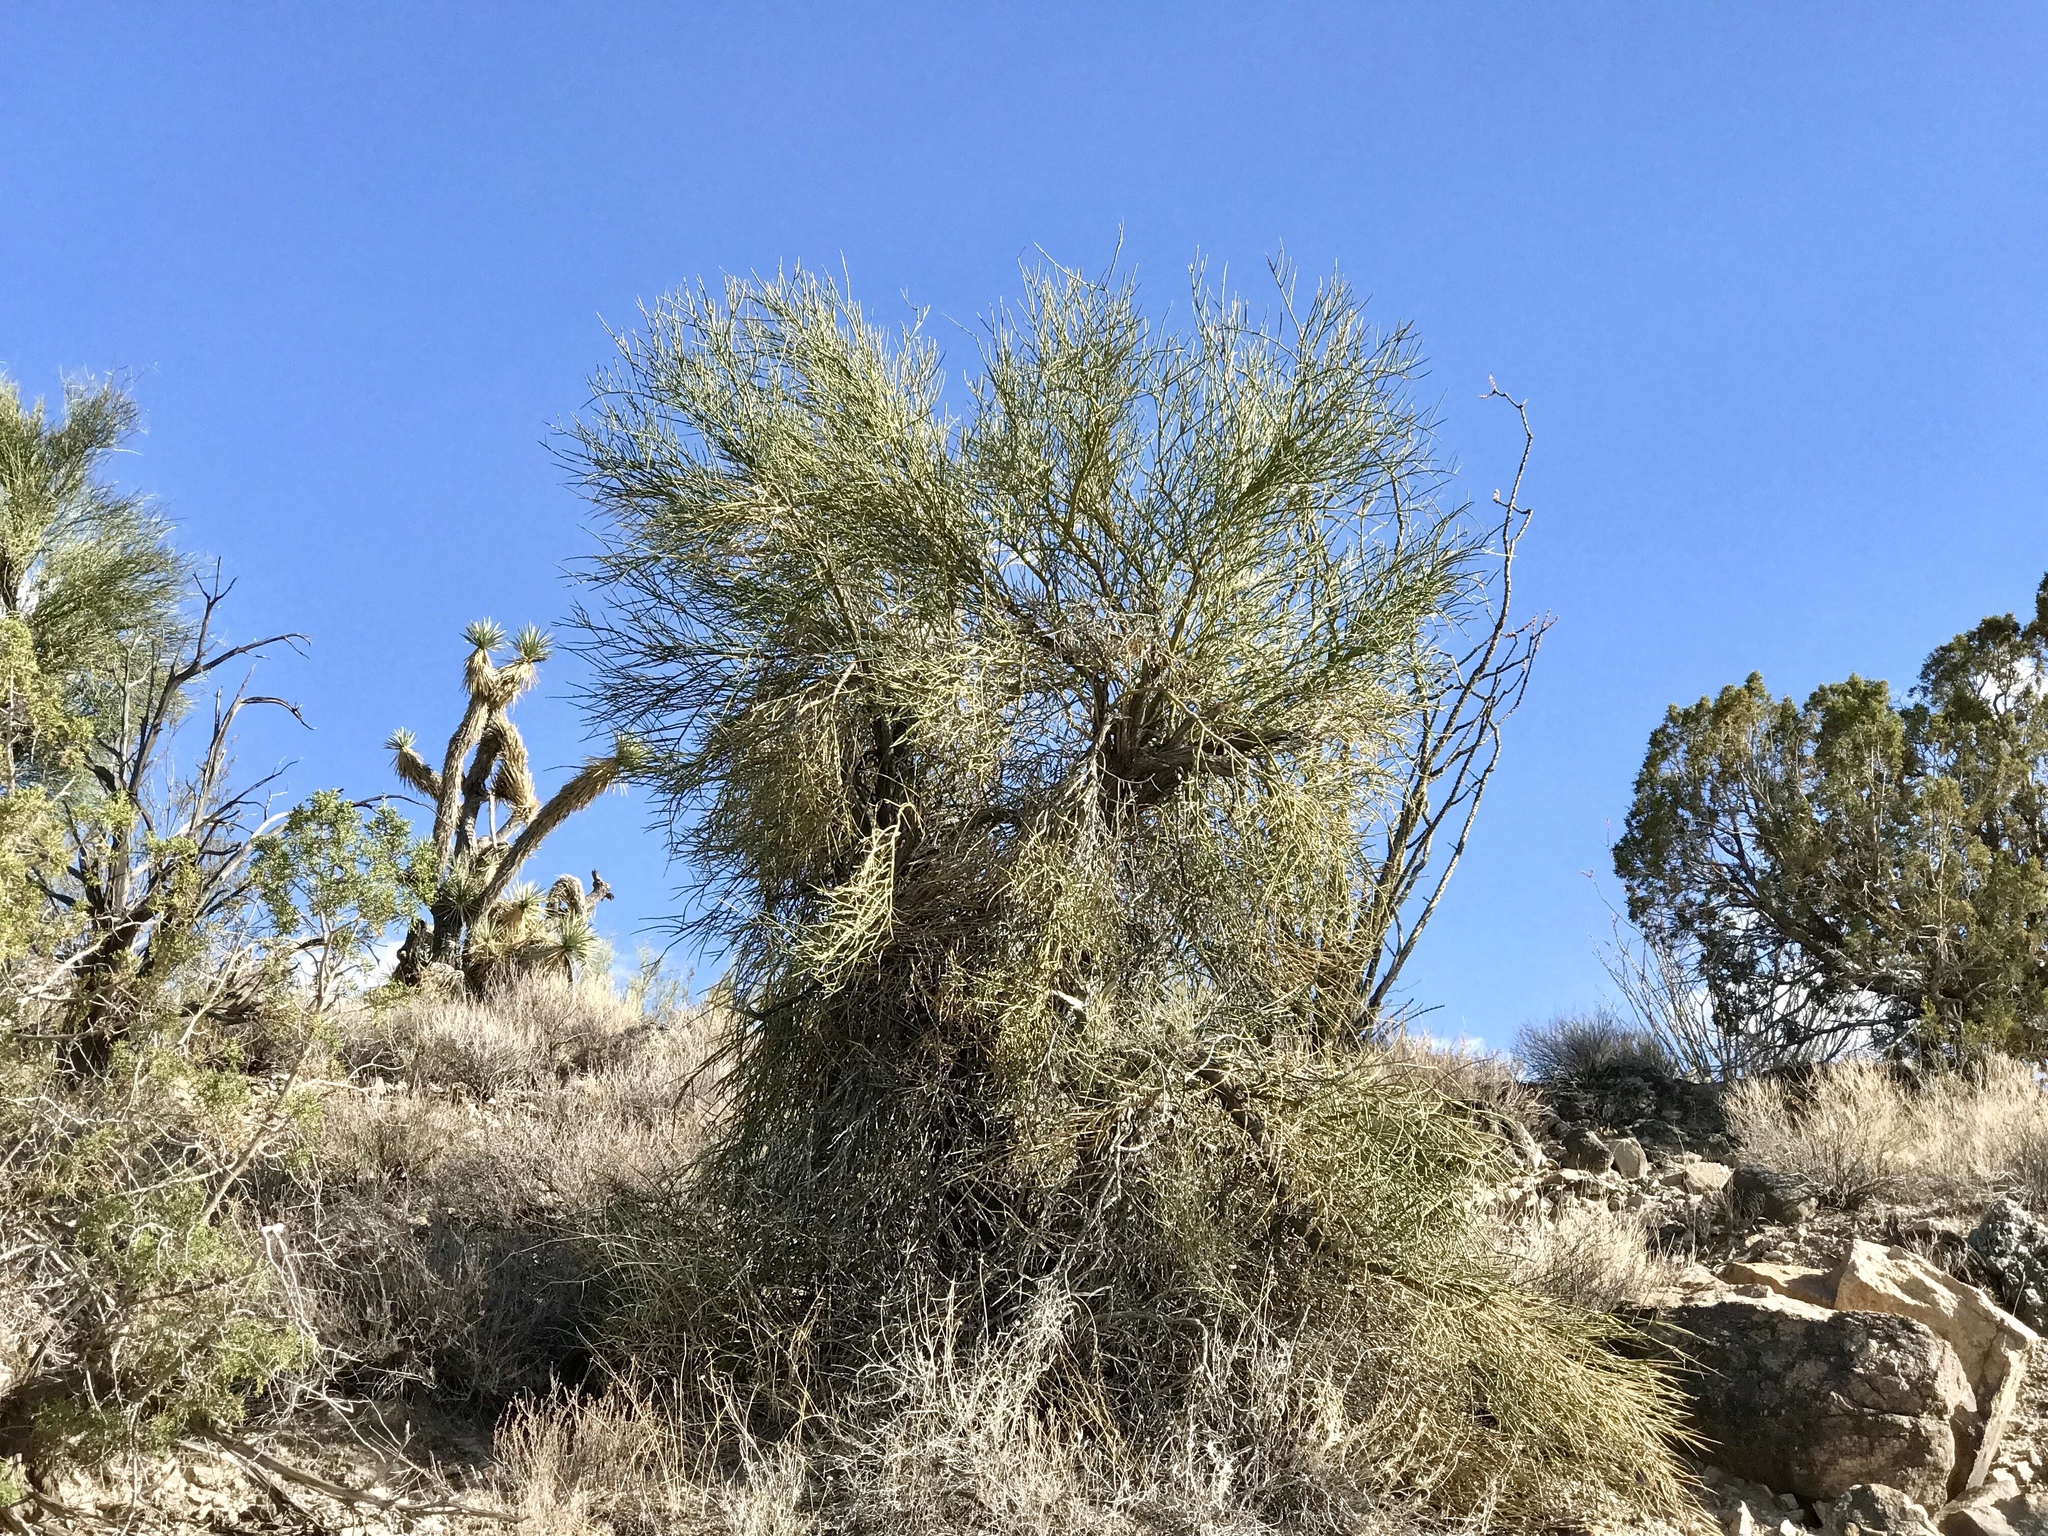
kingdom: Plantae
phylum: Tracheophyta
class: Magnoliopsida
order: Celastrales
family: Celastraceae
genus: Canotia
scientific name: Canotia holacantha
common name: Crucifixion thorns
